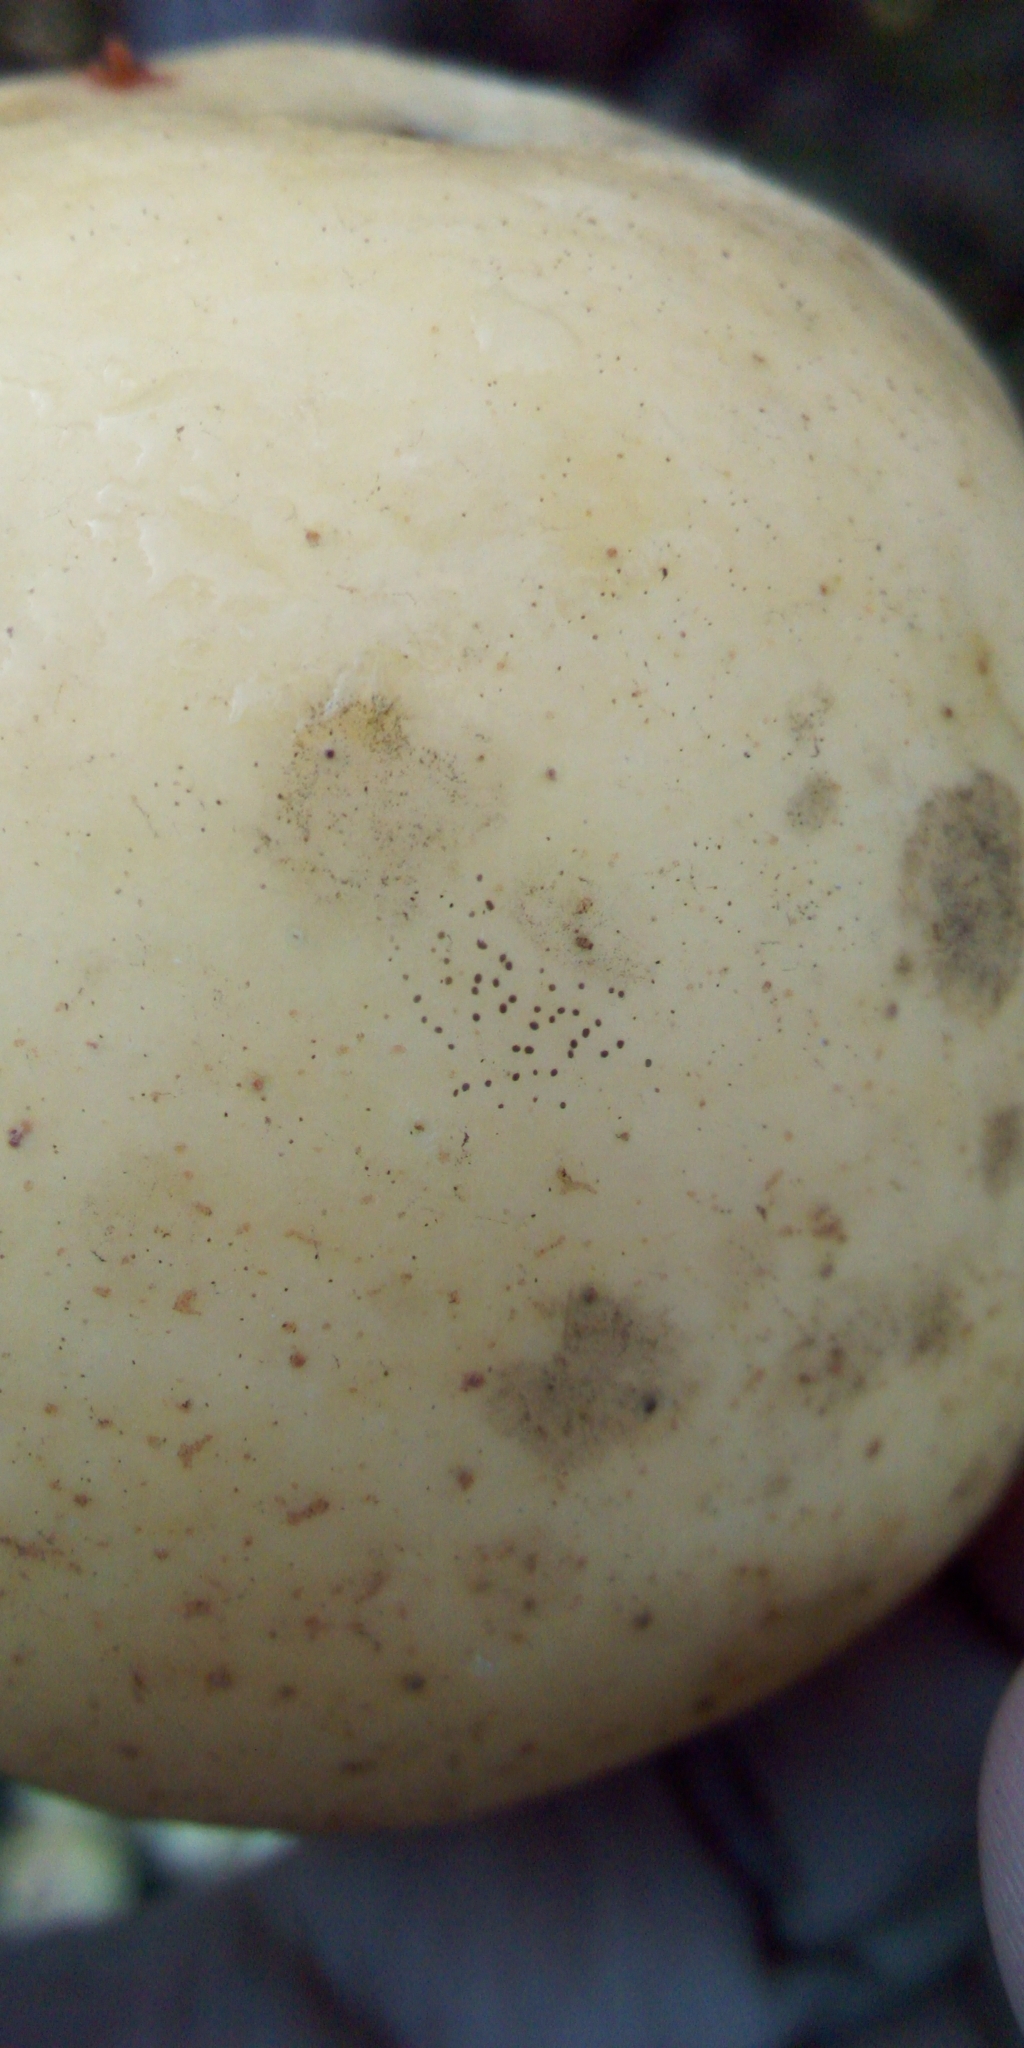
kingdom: Fungi
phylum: Ascomycota
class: Dothideomycetes
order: Mycosphaerellales
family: Schizothyriaceae
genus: Schizothyrium
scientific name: Schizothyrium pomi
